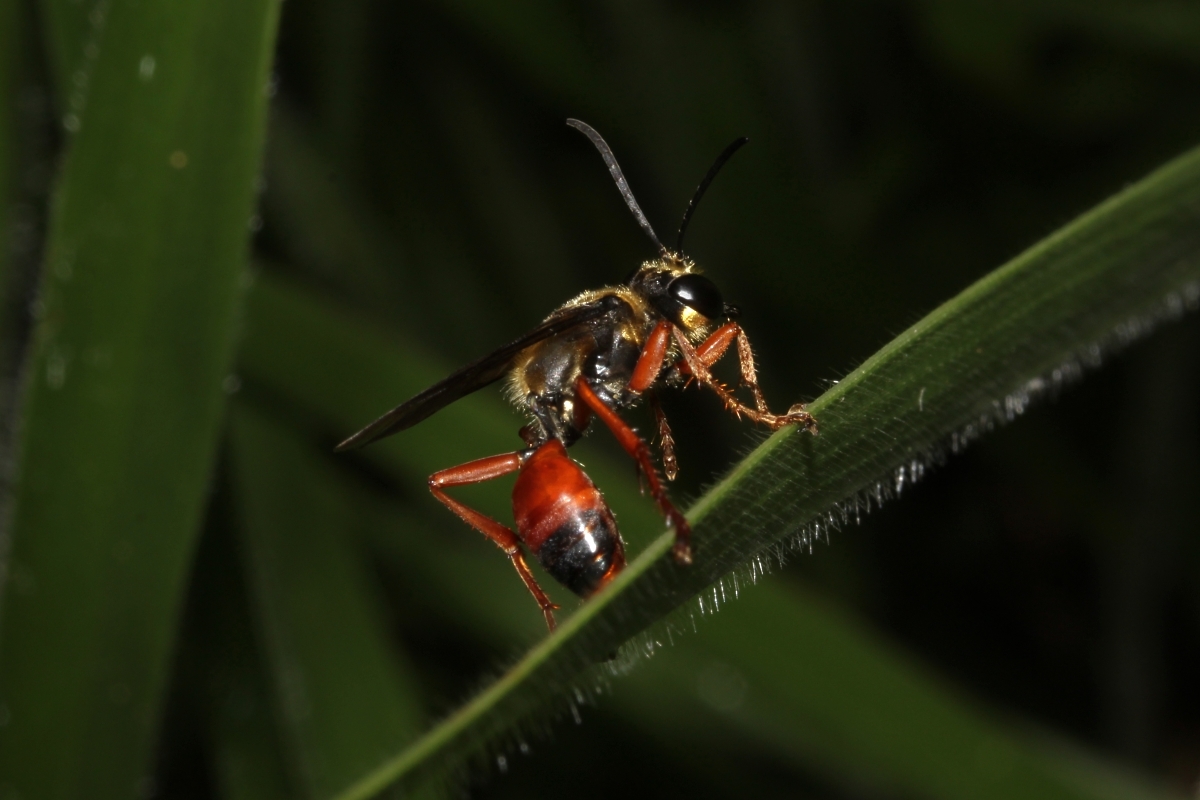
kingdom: Animalia
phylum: Arthropoda
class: Insecta
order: Hymenoptera
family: Sphecidae
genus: Sphex
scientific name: Sphex dorsalis
